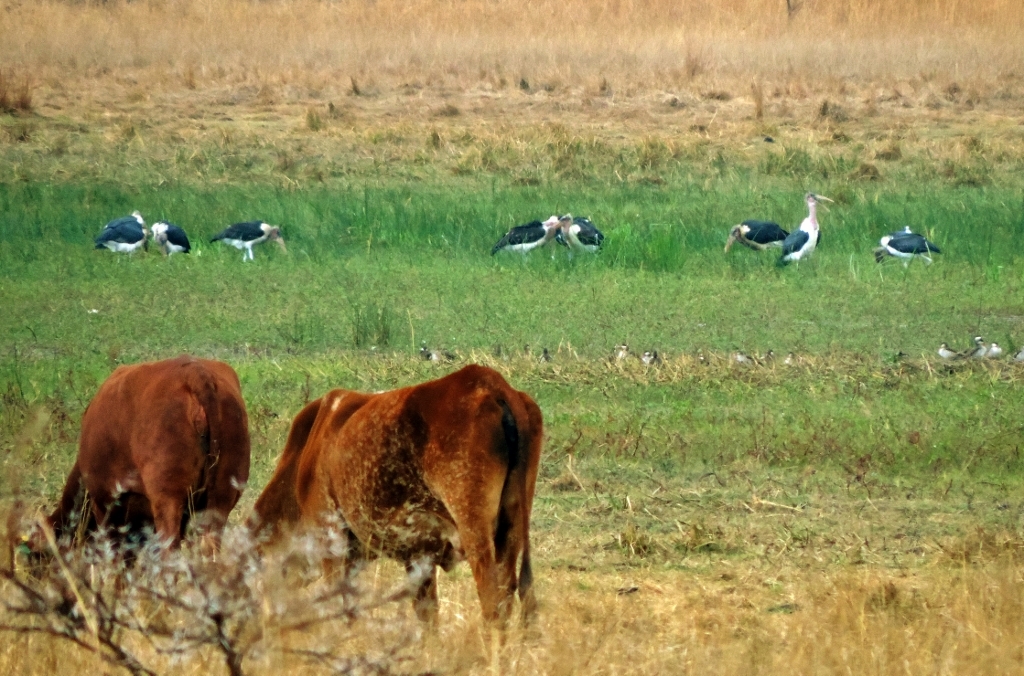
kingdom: Animalia
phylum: Chordata
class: Aves
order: Ciconiiformes
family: Ciconiidae
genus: Leptoptilos
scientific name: Leptoptilos crumenifer
